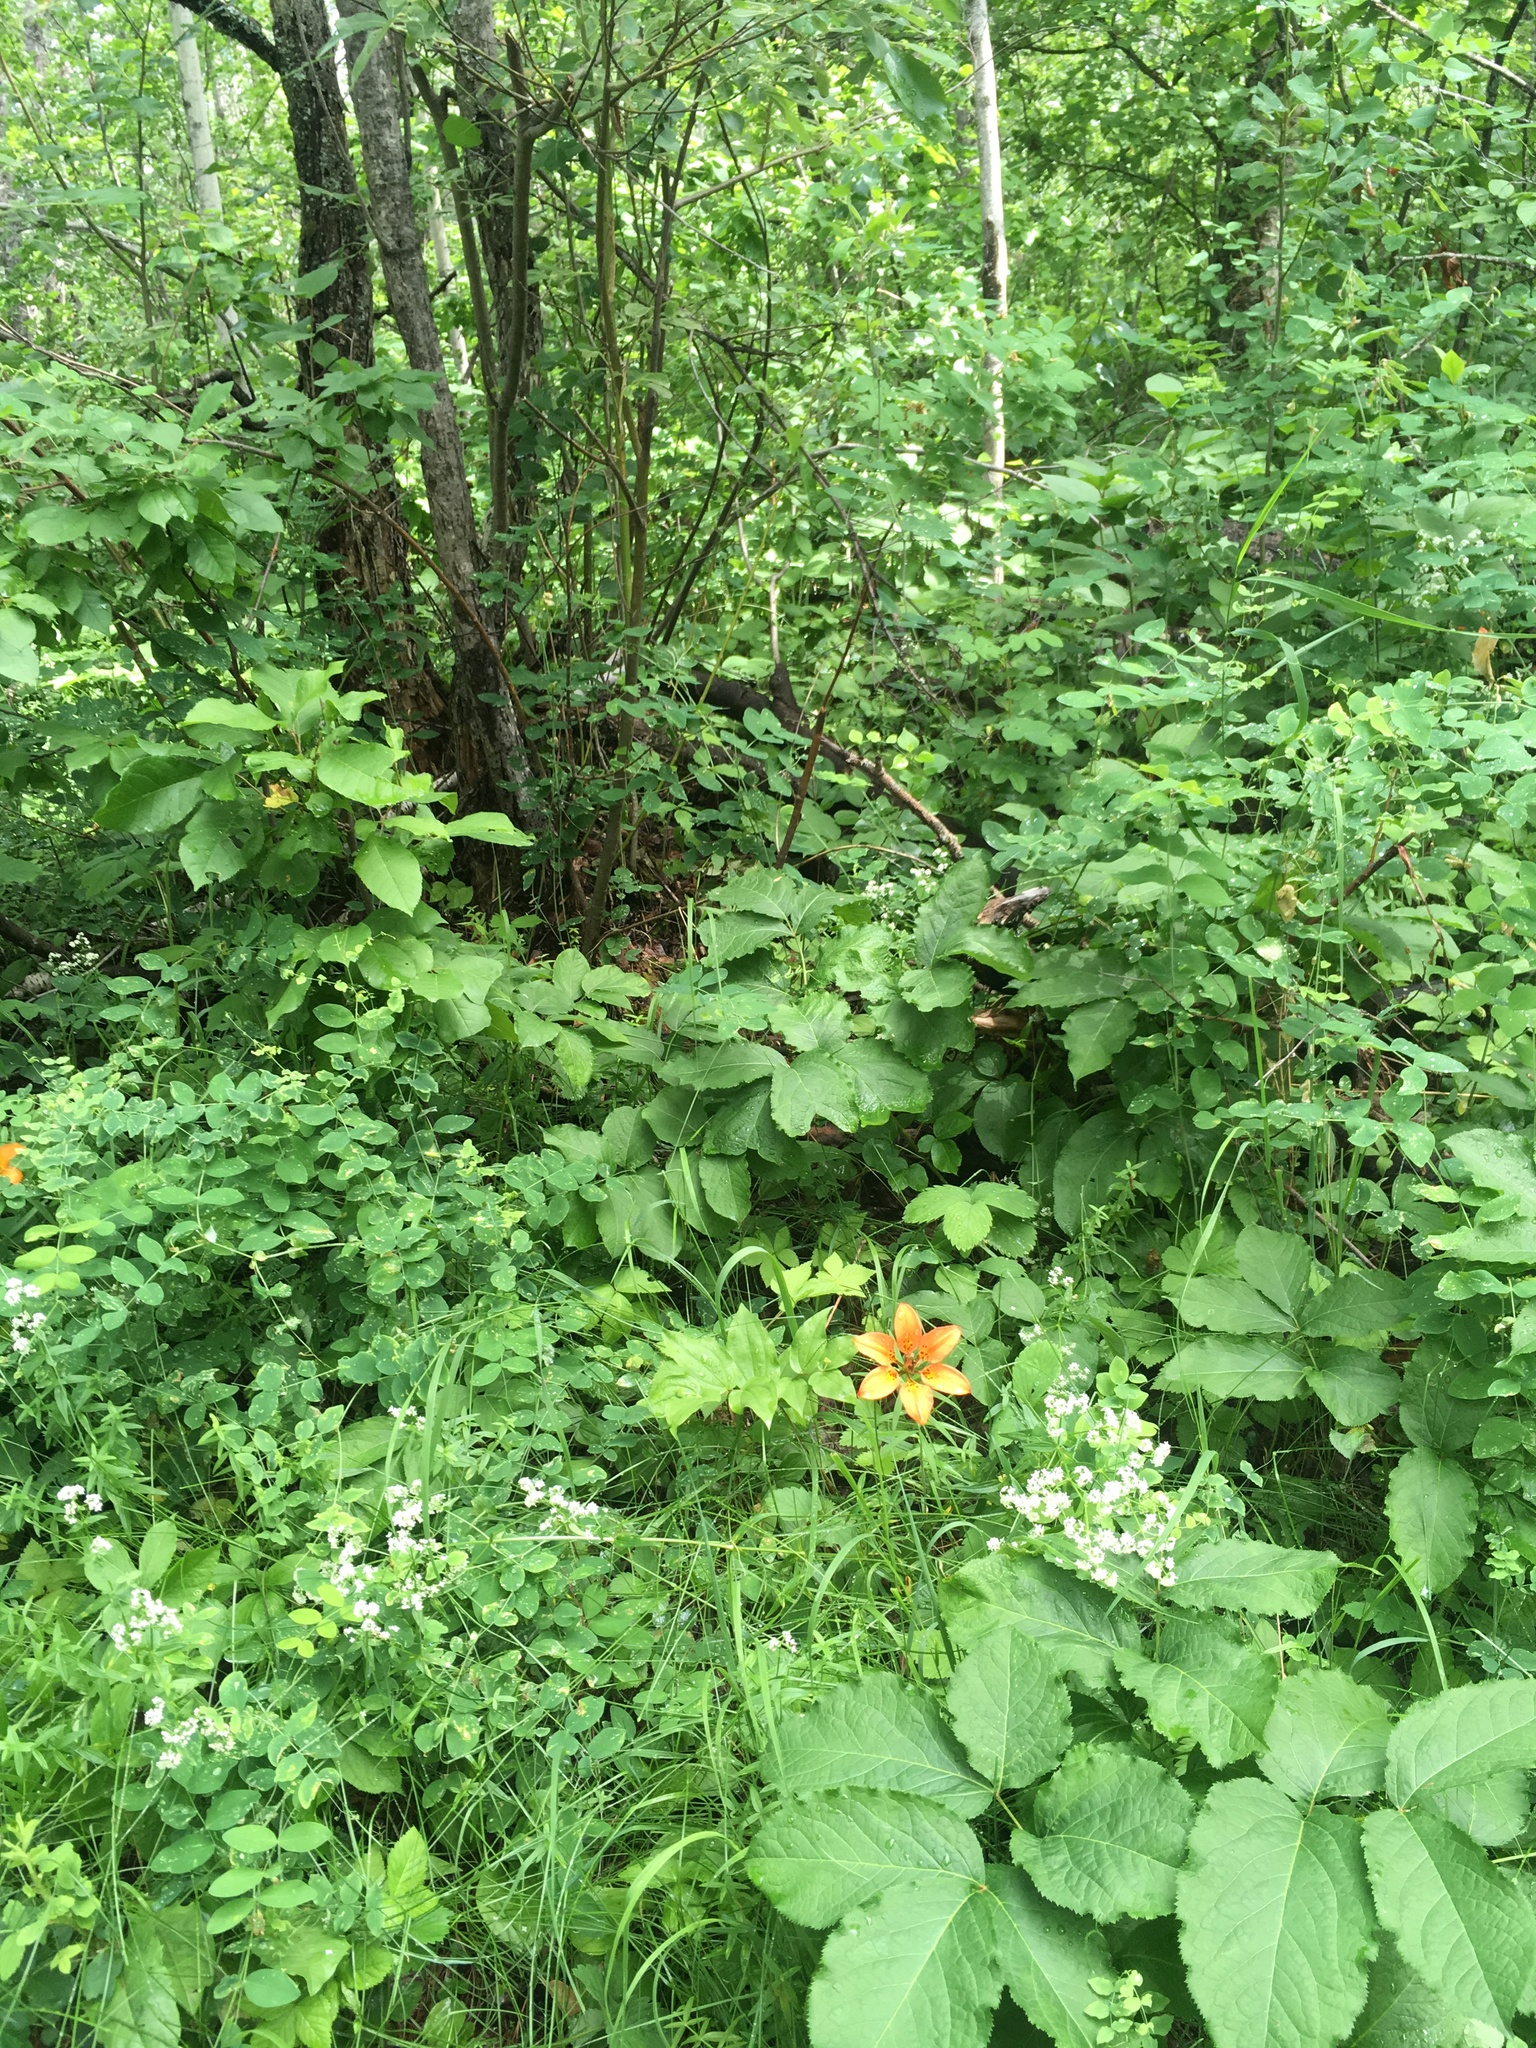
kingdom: Plantae
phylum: Tracheophyta
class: Liliopsida
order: Liliales
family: Liliaceae
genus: Lilium
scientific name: Lilium philadelphicum
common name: Red lily
